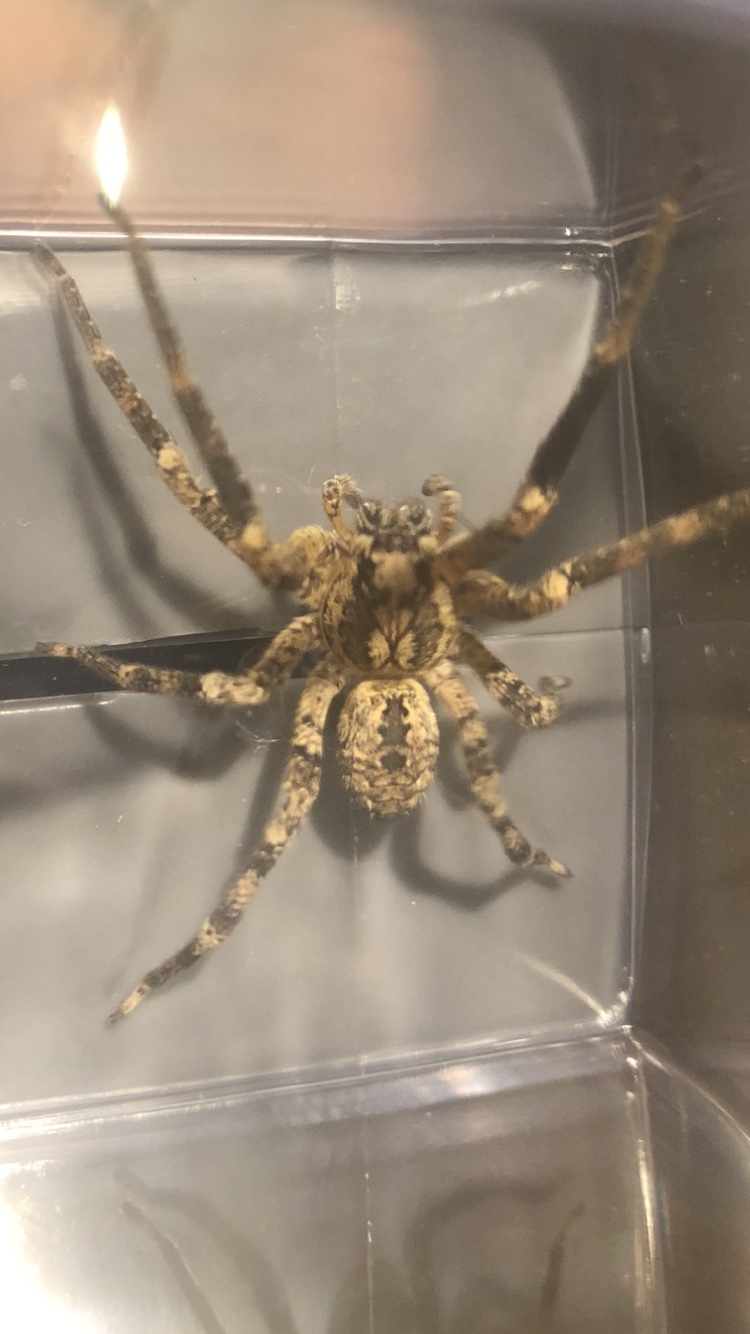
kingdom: Animalia
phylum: Arthropoda
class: Arachnida
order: Araneae
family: Zoropsidae
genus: Zoropsis
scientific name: Zoropsis spinimana
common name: Zoropsid spider
